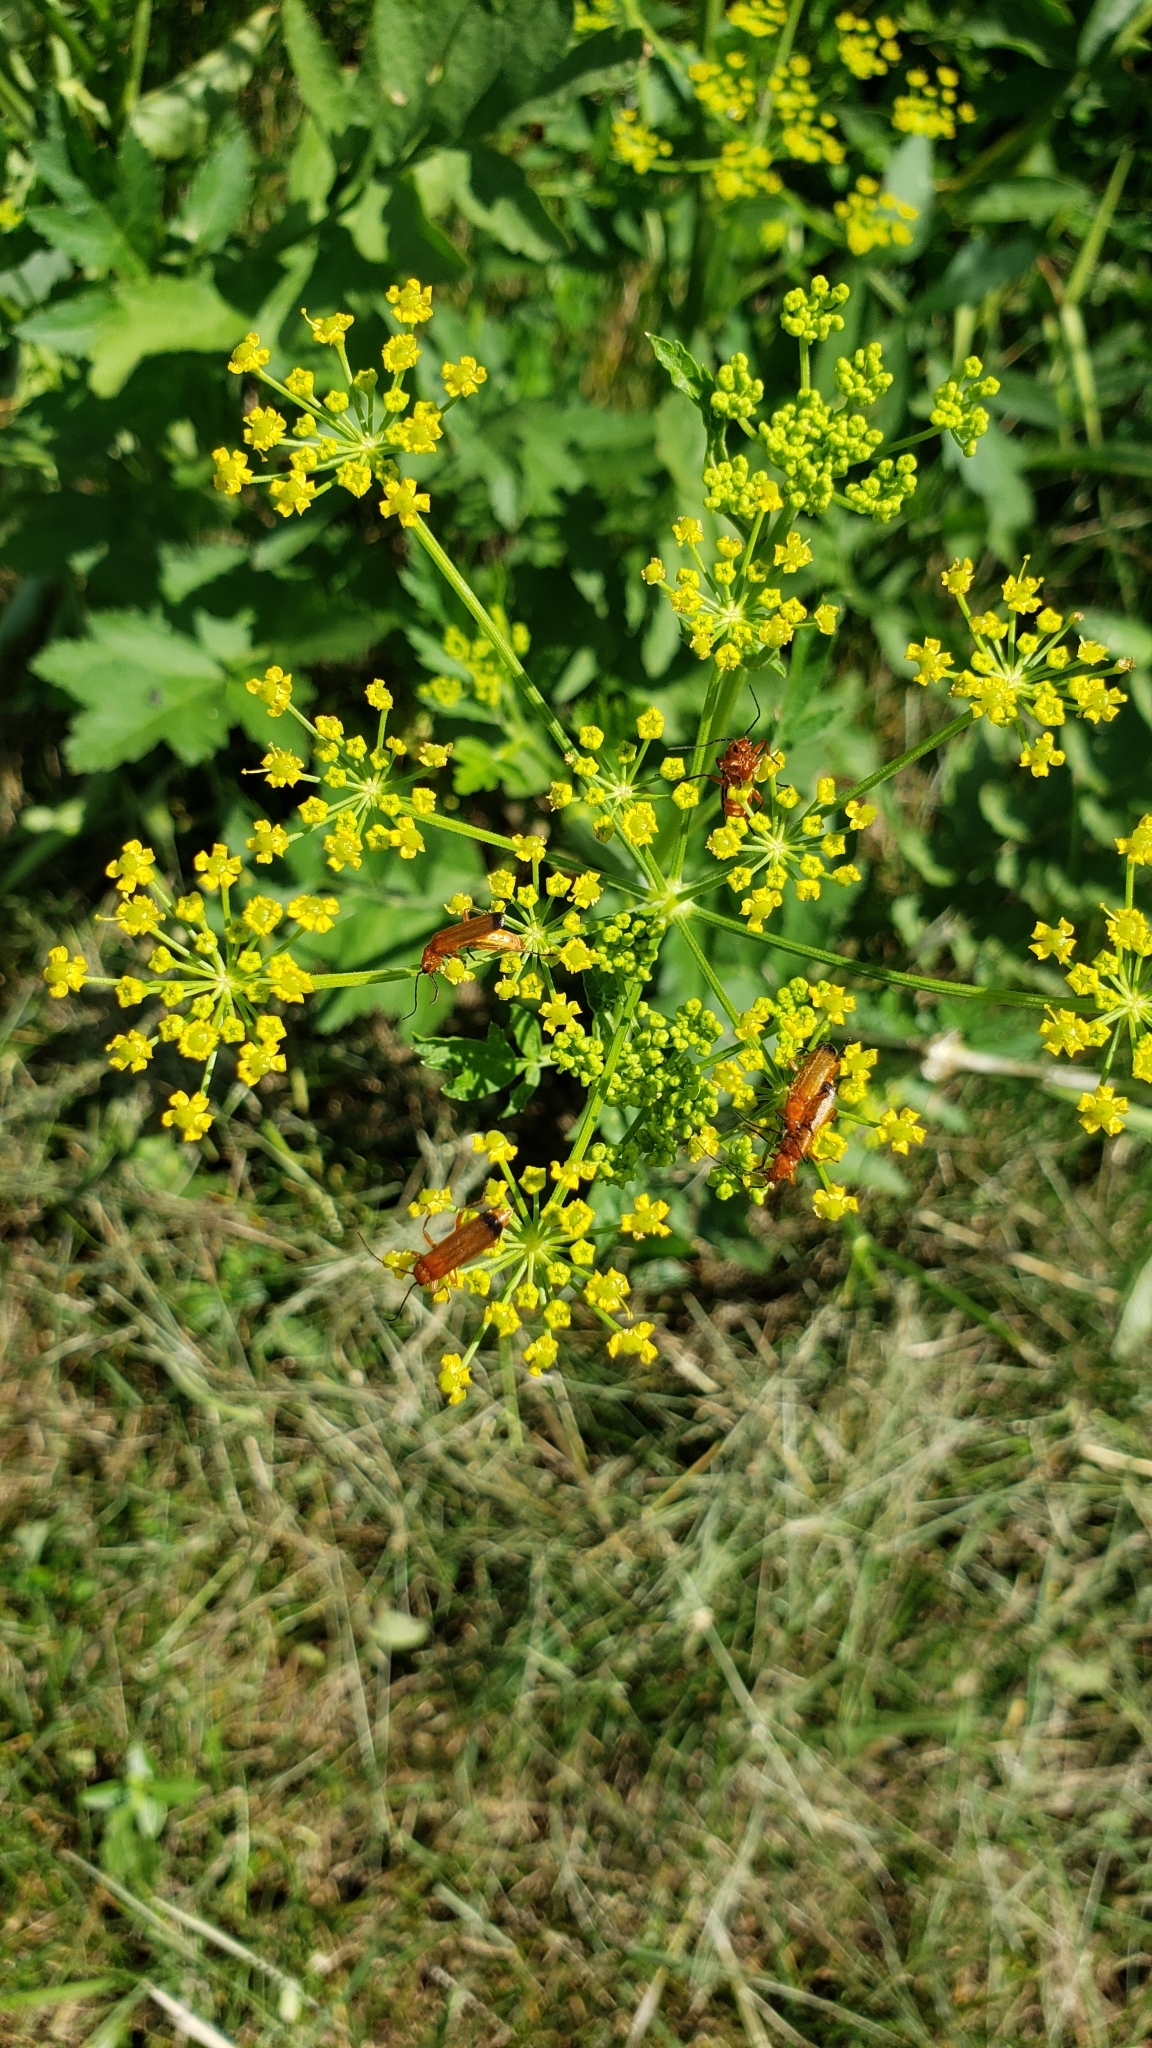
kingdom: Animalia
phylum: Arthropoda
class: Insecta
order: Coleoptera
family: Cantharidae
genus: Rhagonycha
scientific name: Rhagonycha fulva
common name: Common red soldier beetle
